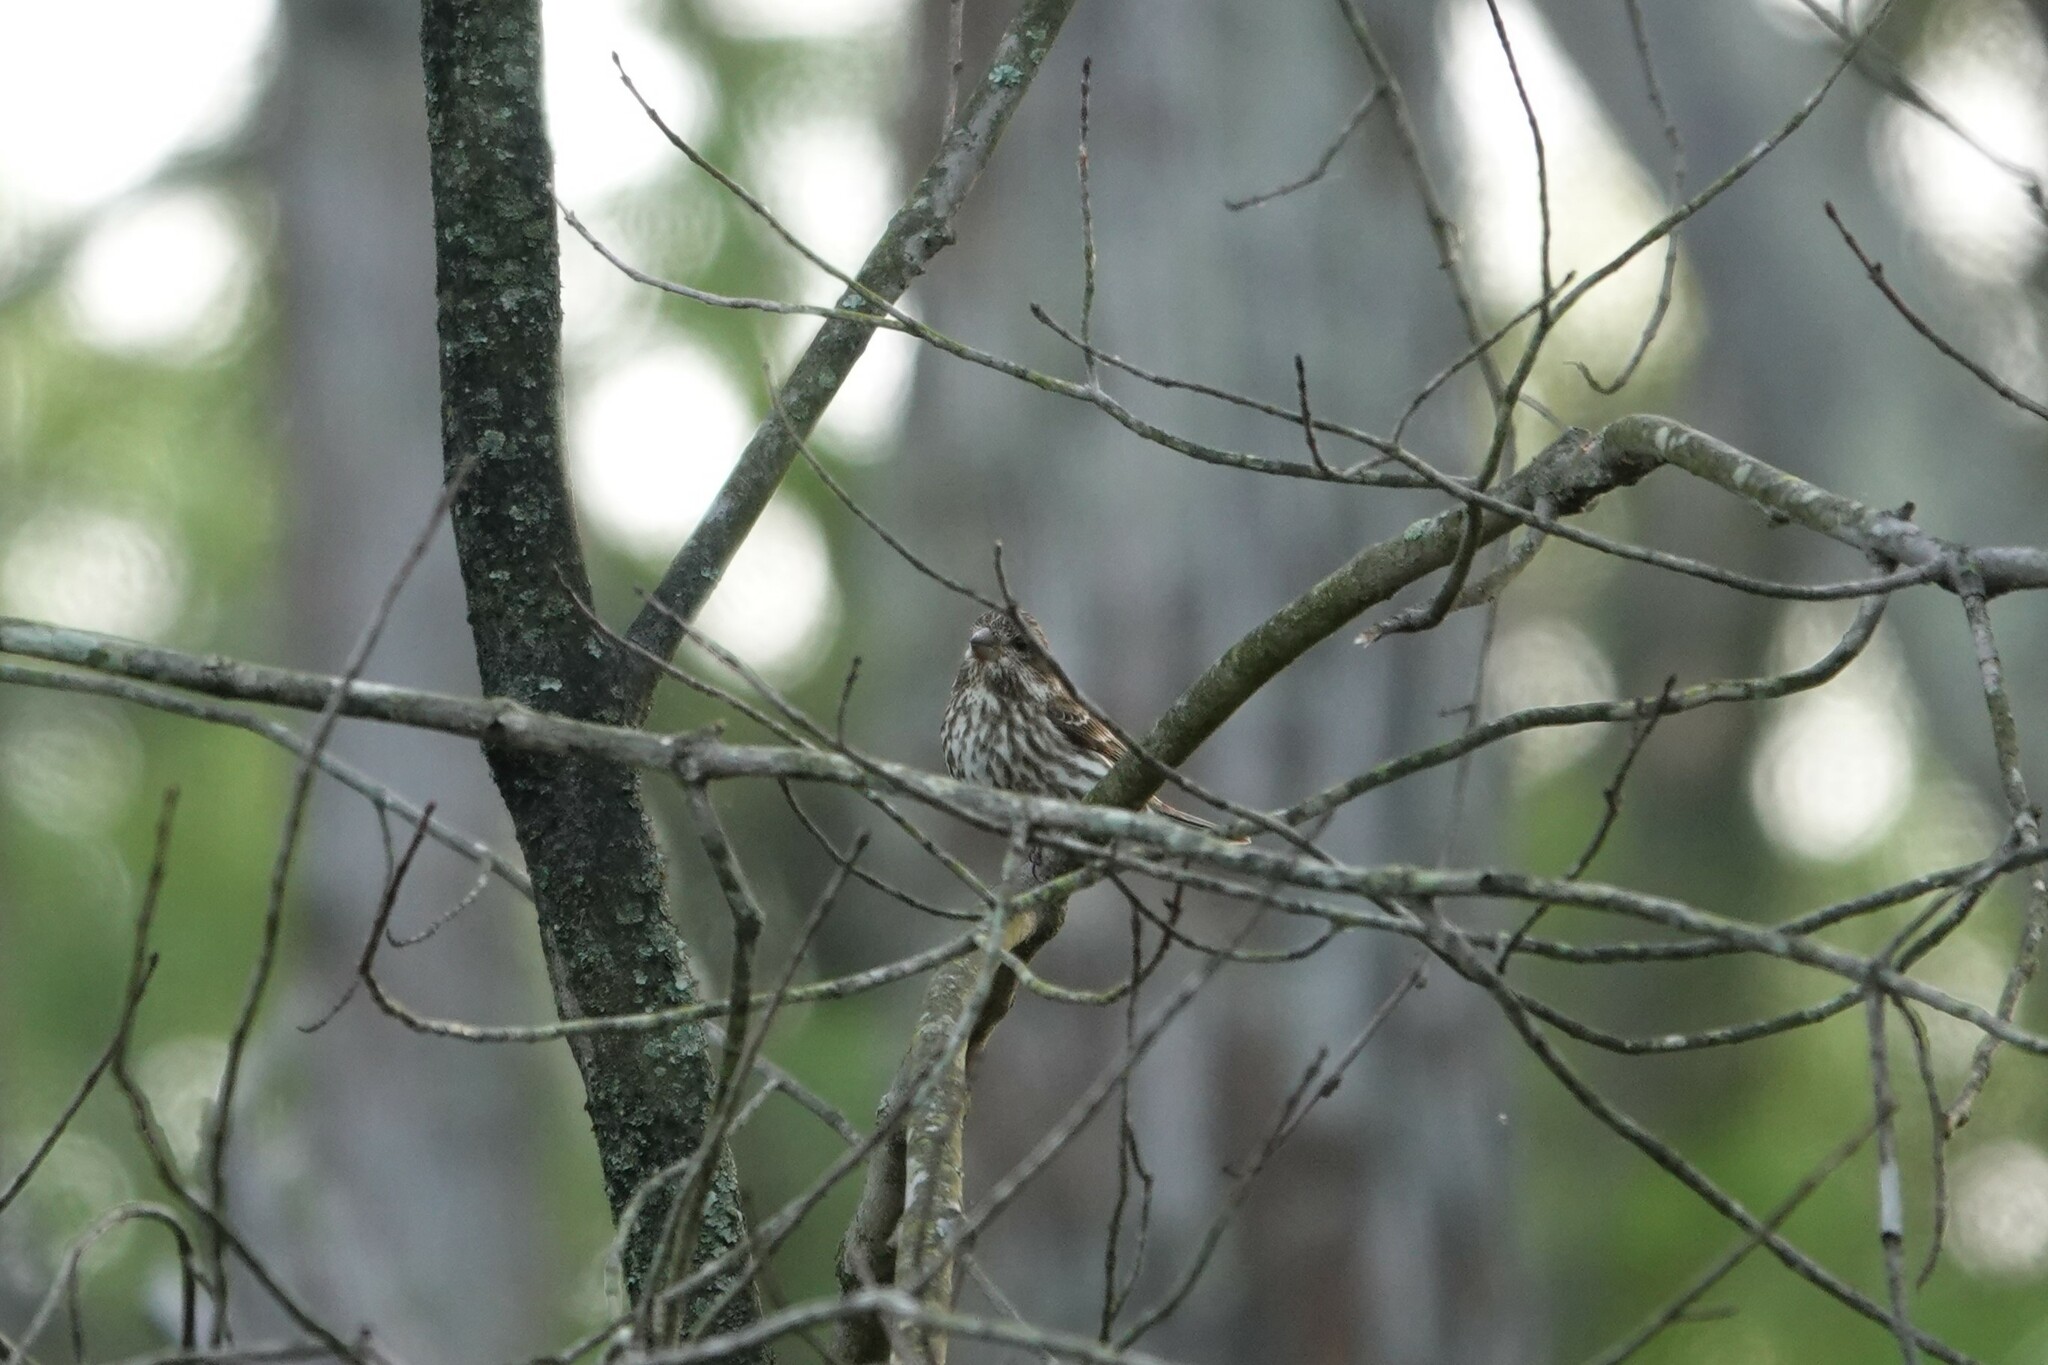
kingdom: Animalia
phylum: Chordata
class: Aves
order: Passeriformes
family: Fringillidae
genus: Haemorhous
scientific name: Haemorhous purpureus
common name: Purple finch
